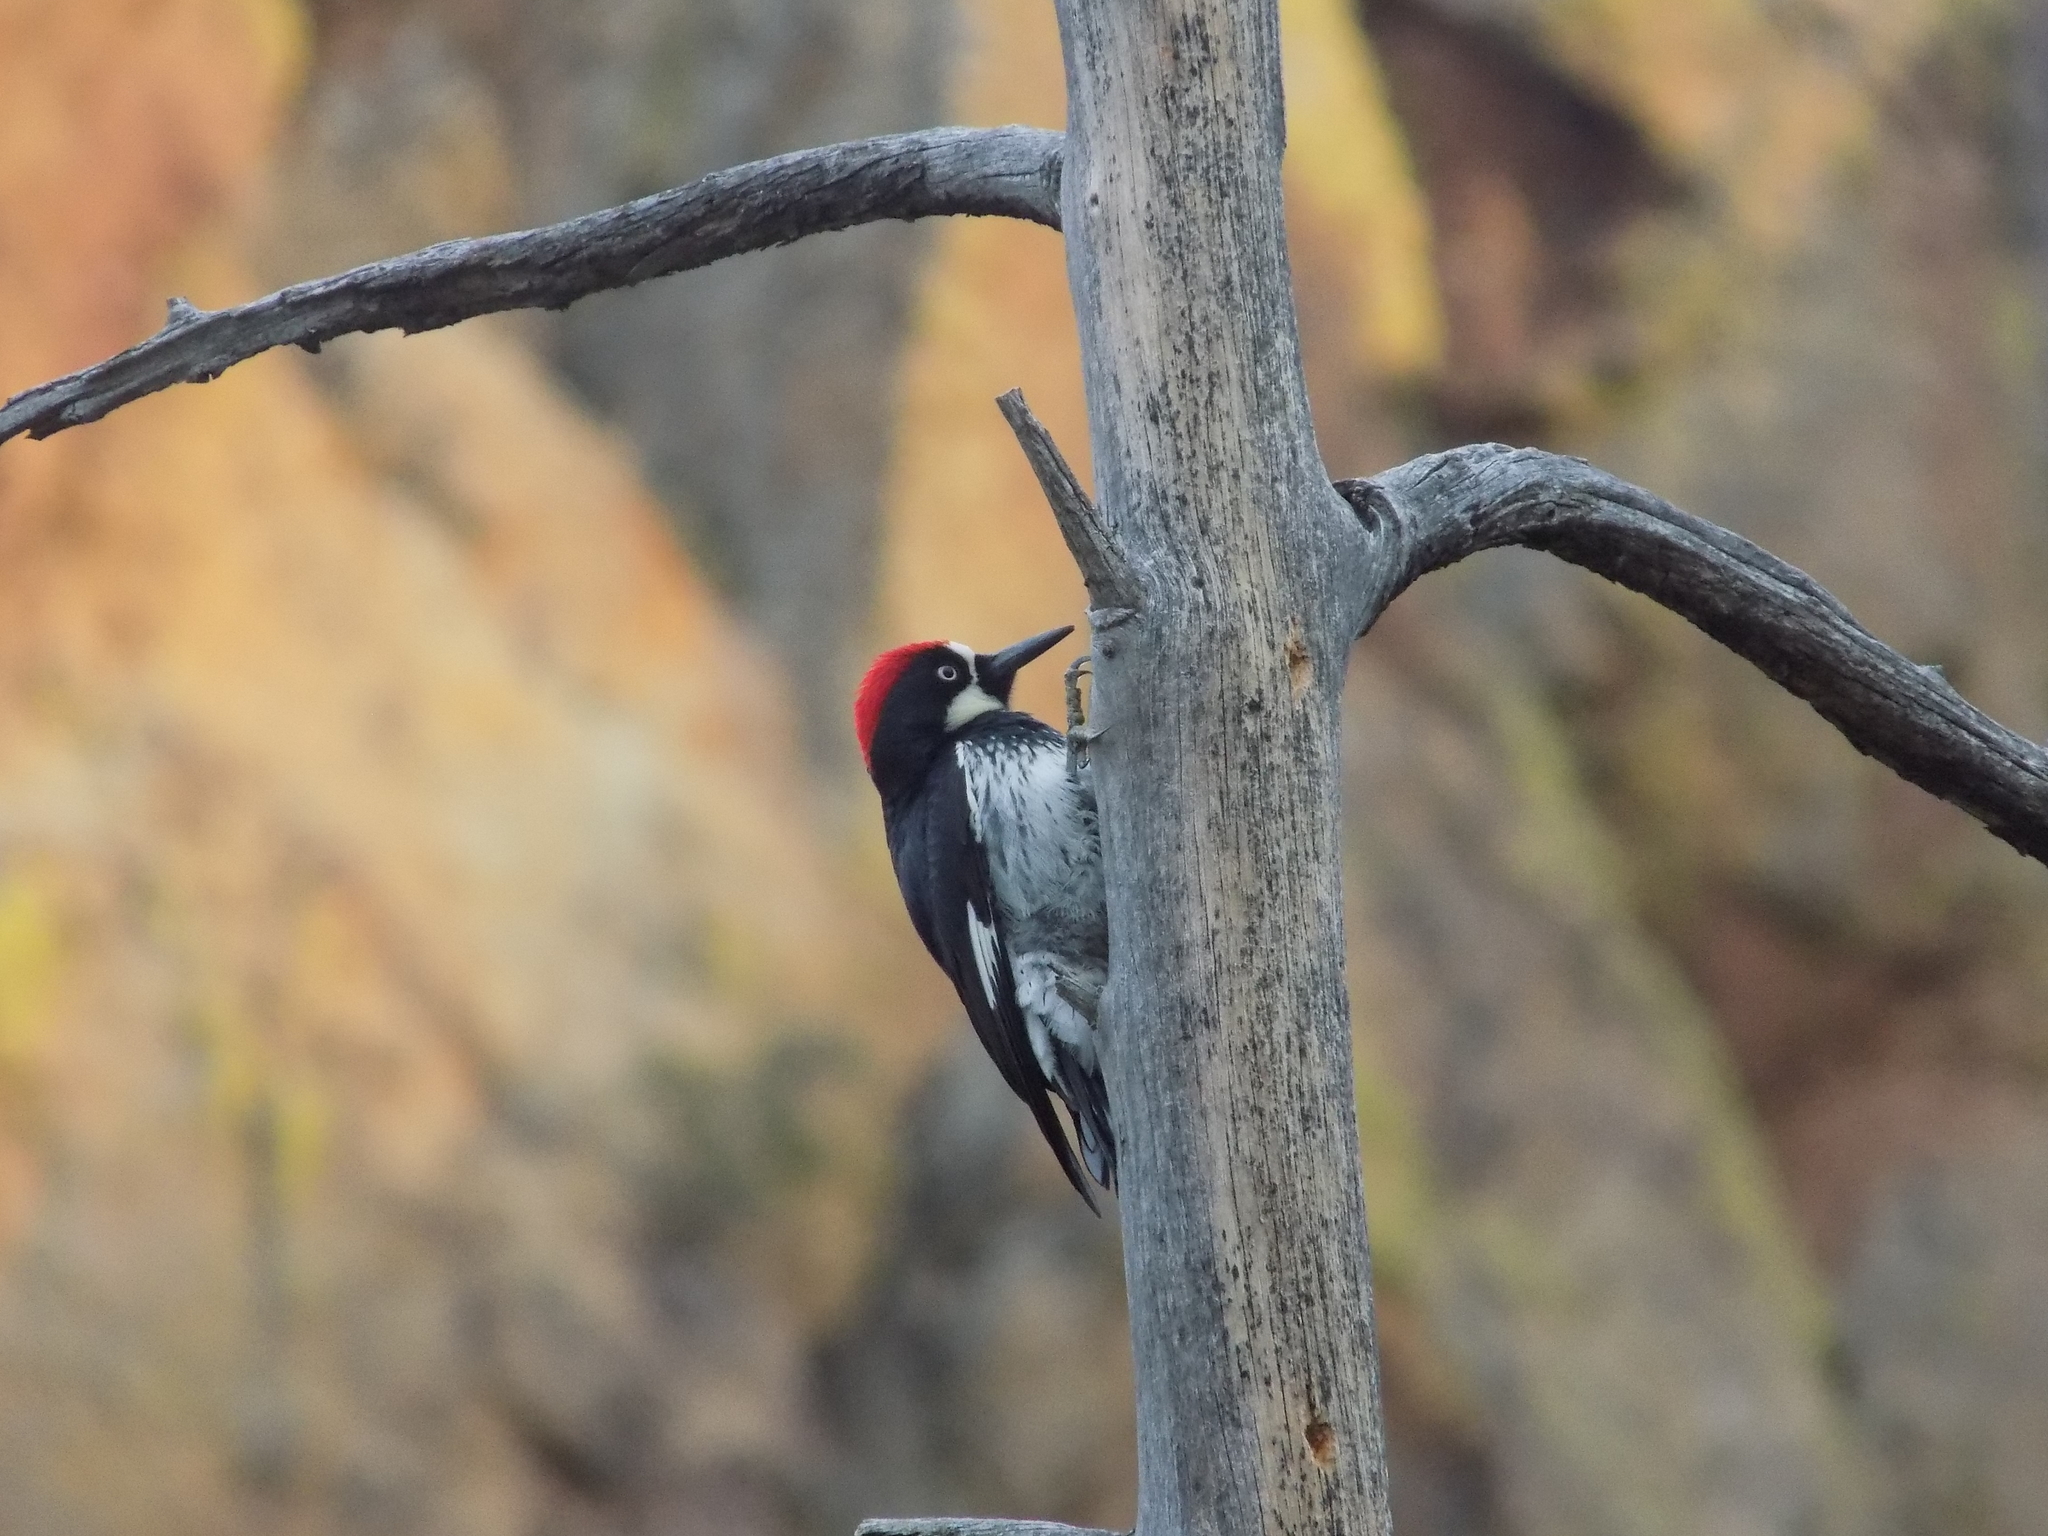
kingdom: Animalia
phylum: Chordata
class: Aves
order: Piciformes
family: Picidae
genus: Melanerpes
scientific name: Melanerpes formicivorus
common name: Acorn woodpecker
